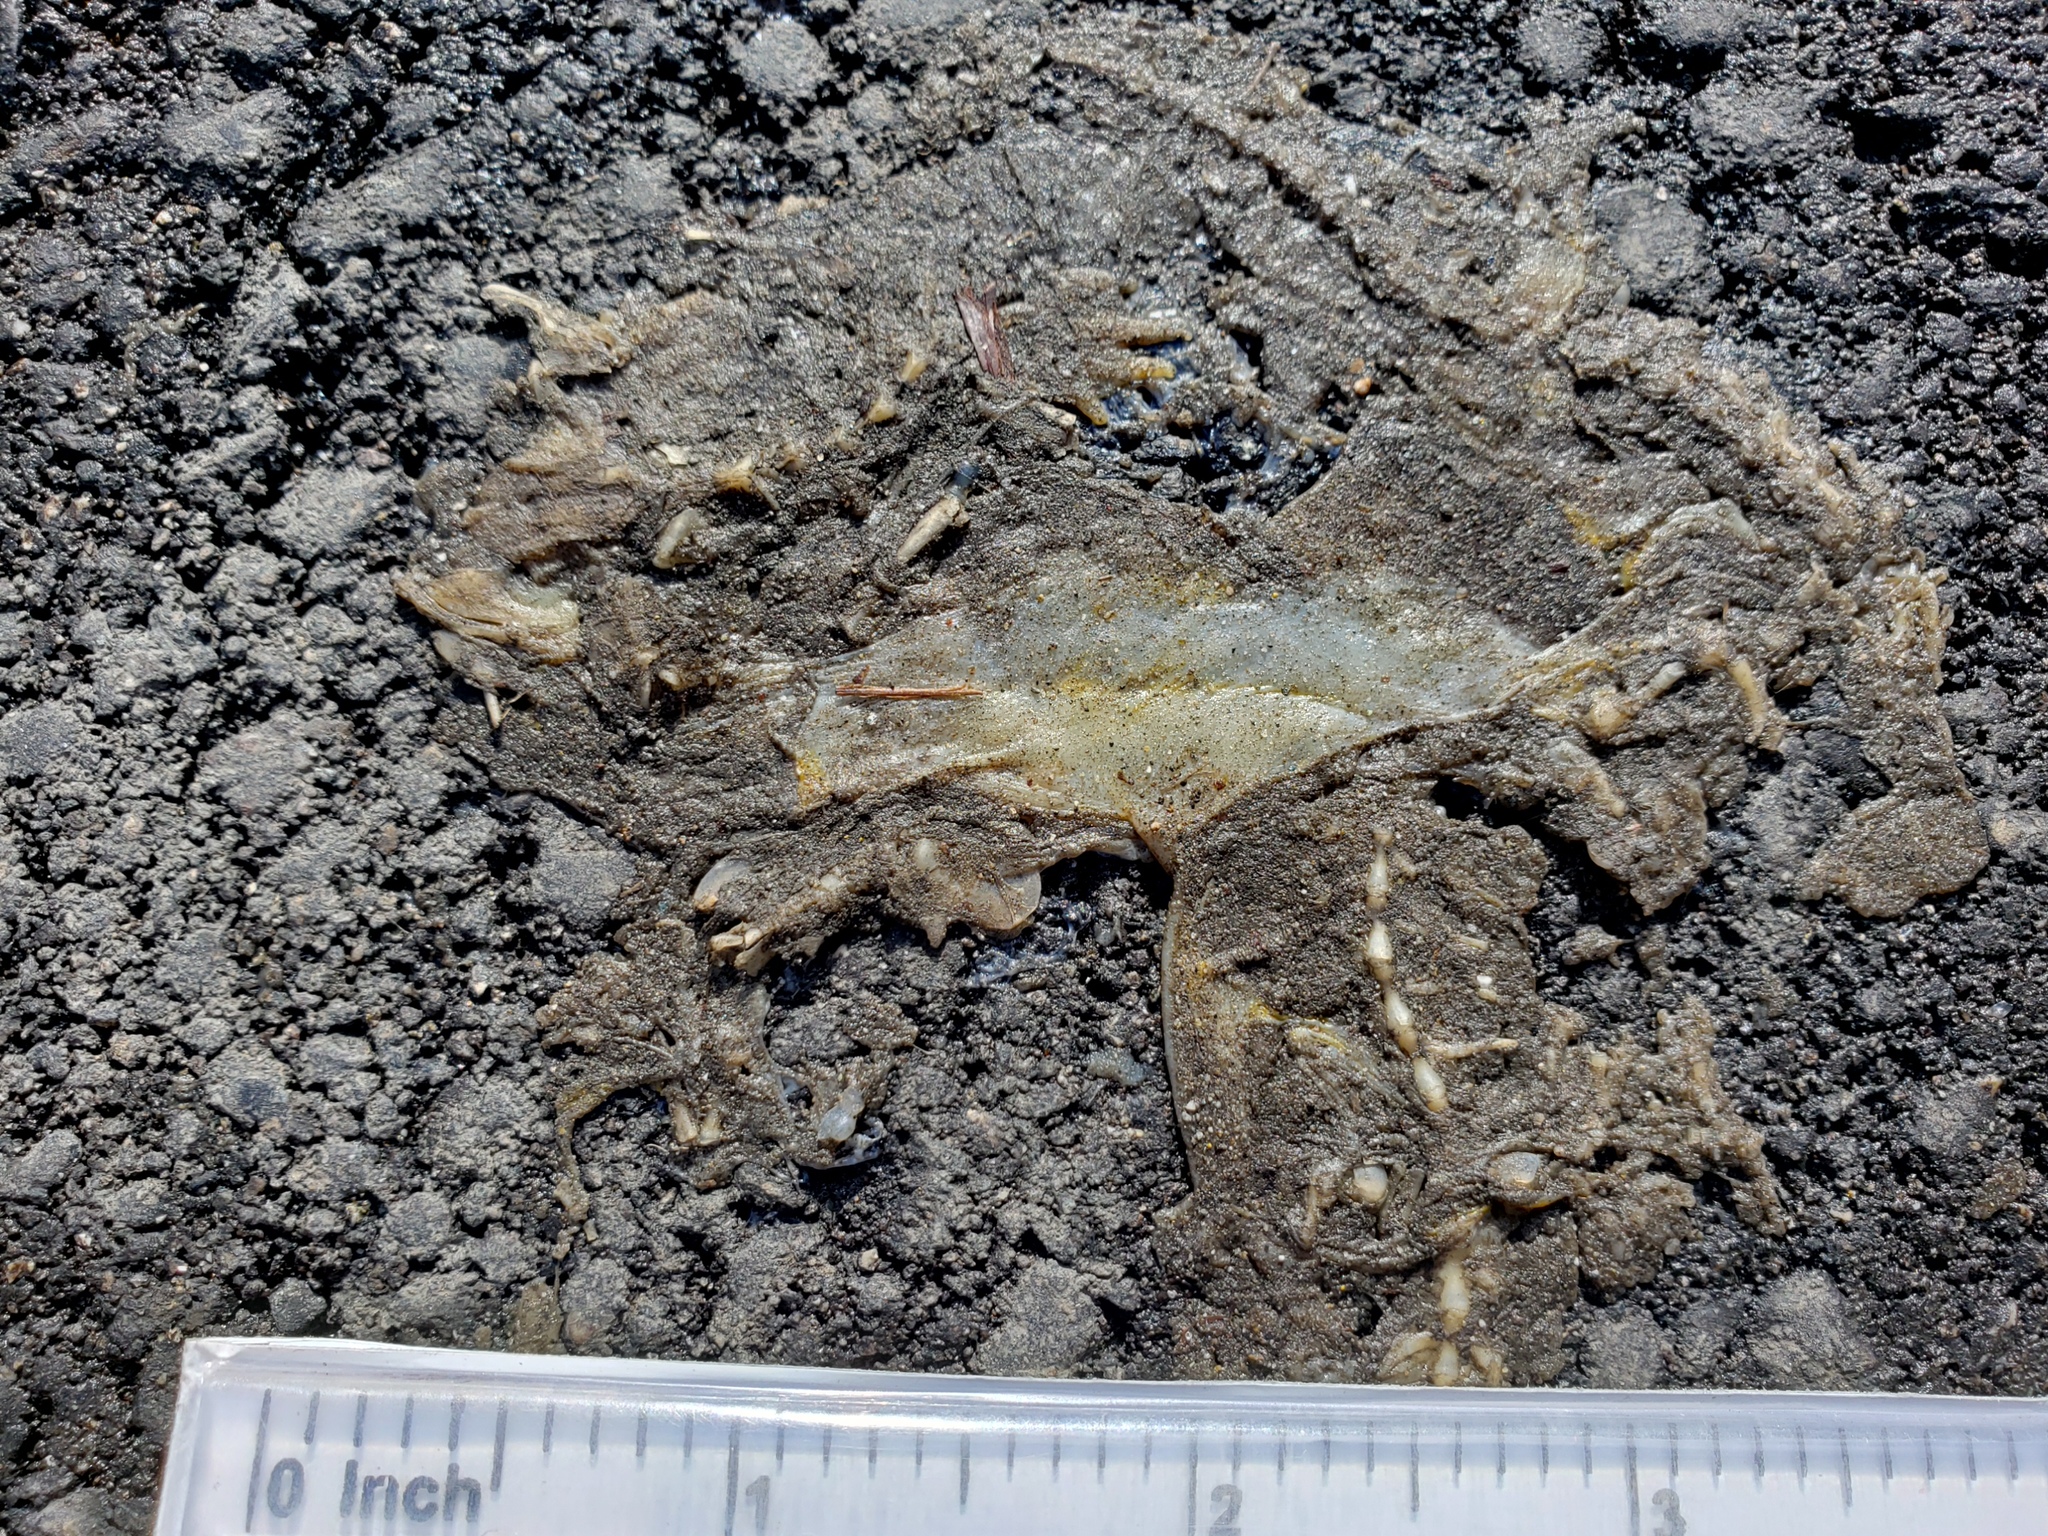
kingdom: Animalia
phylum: Chordata
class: Amphibia
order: Caudata
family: Salamandridae
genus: Taricha
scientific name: Taricha
